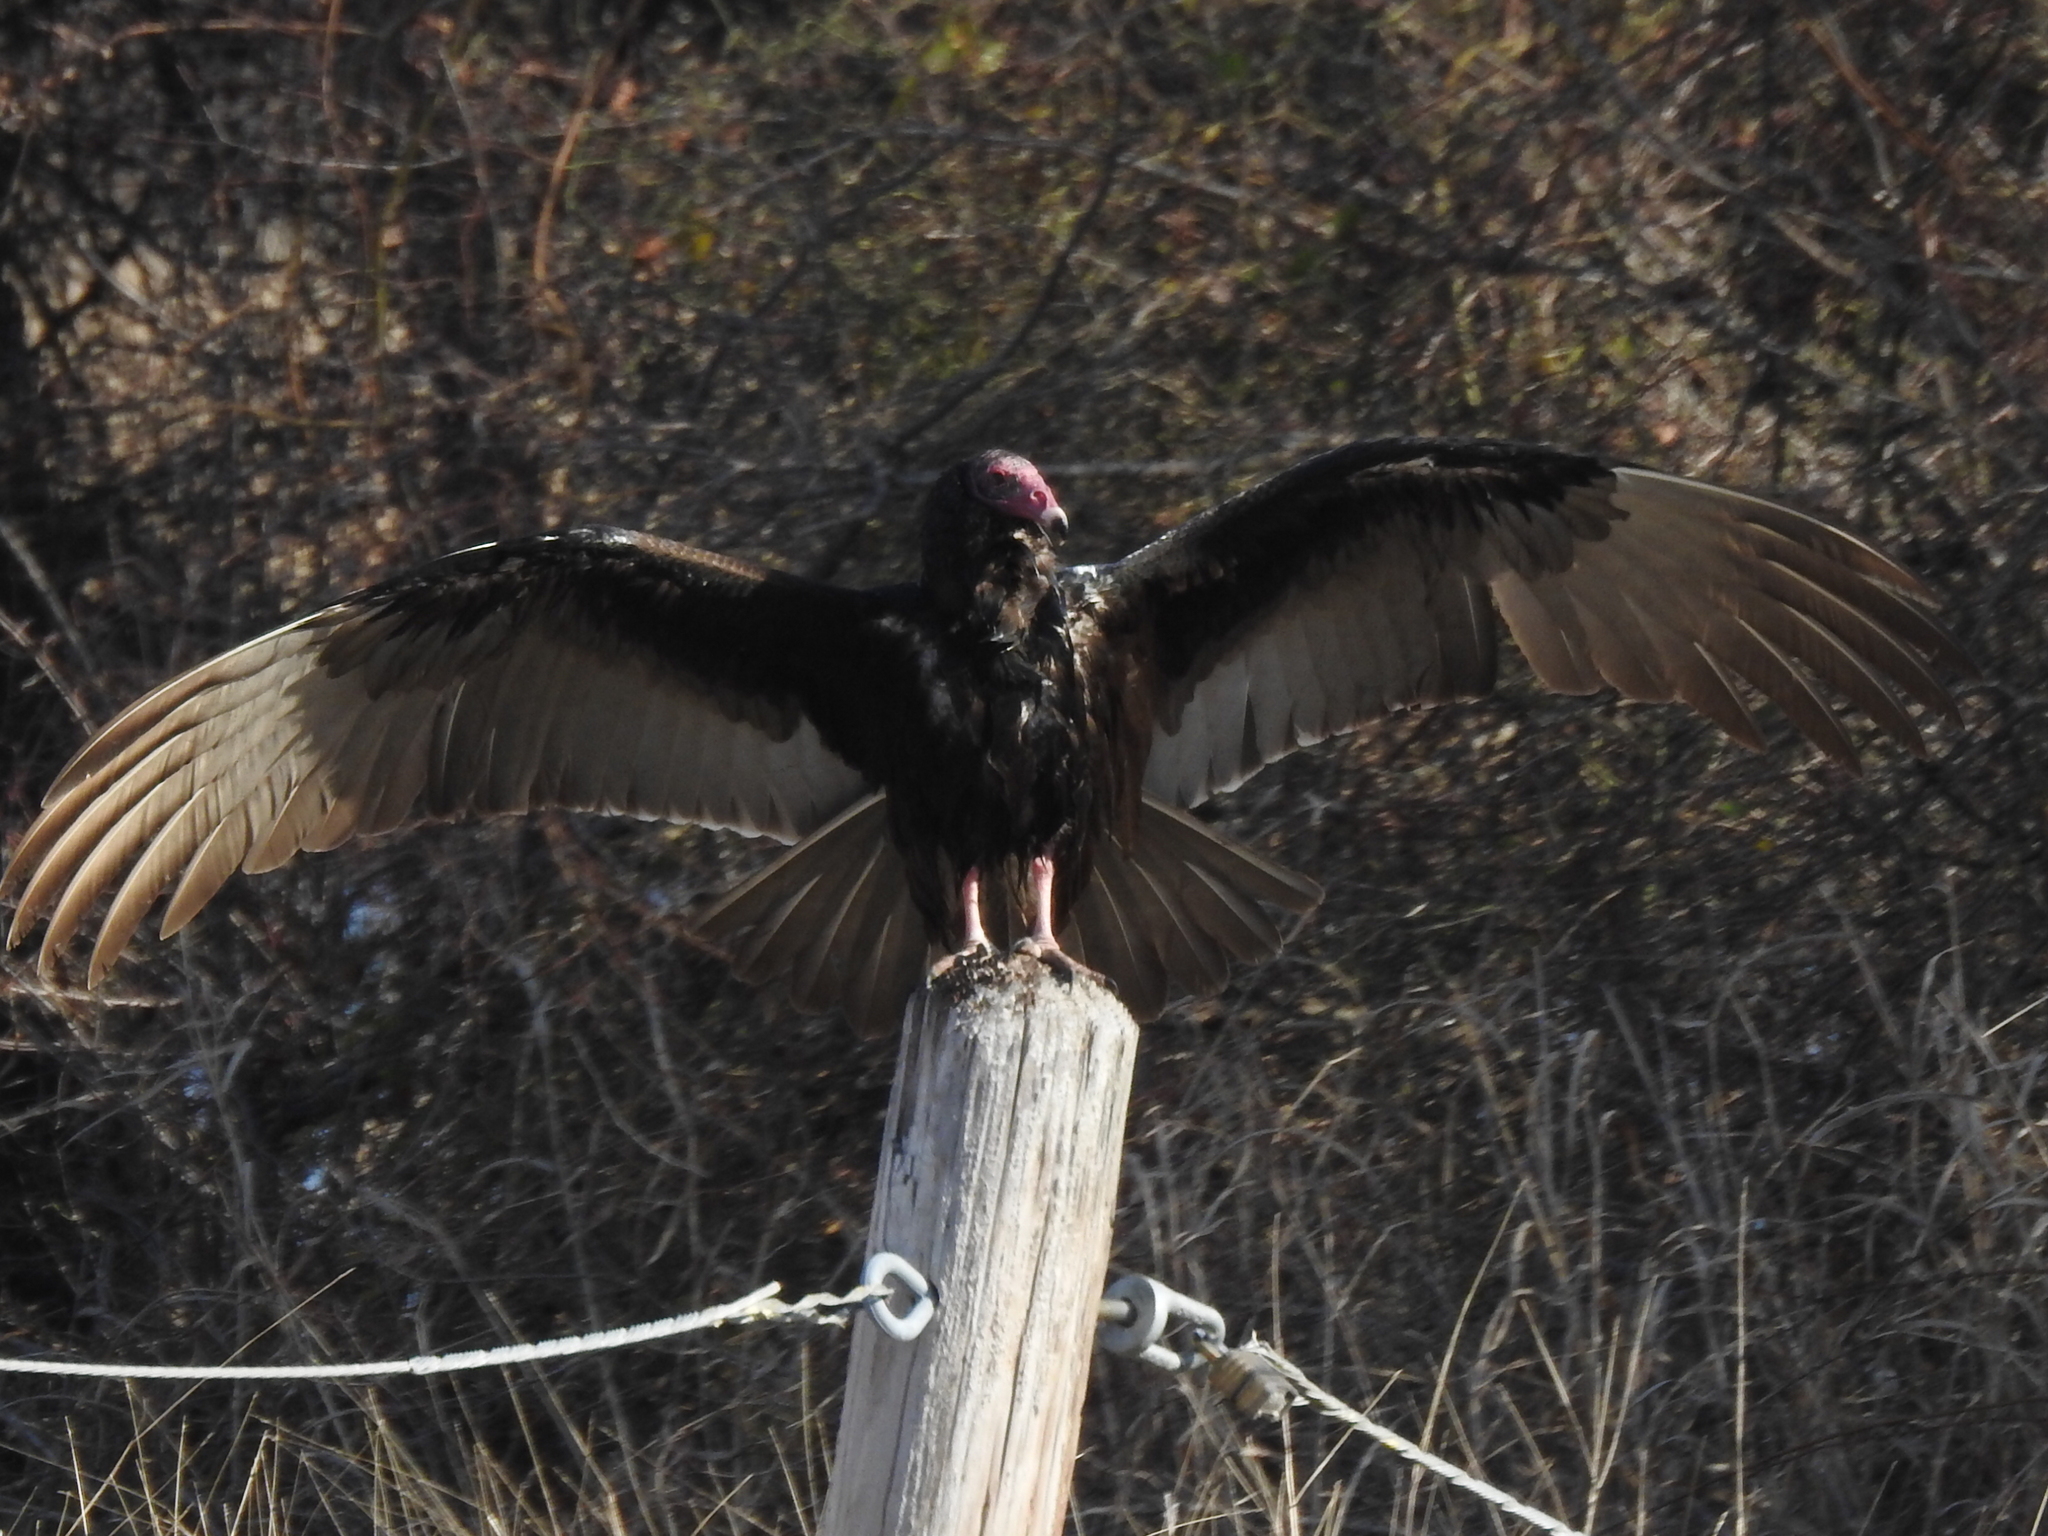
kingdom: Animalia
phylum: Chordata
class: Aves
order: Accipitriformes
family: Cathartidae
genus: Cathartes
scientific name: Cathartes aura
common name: Turkey vulture
